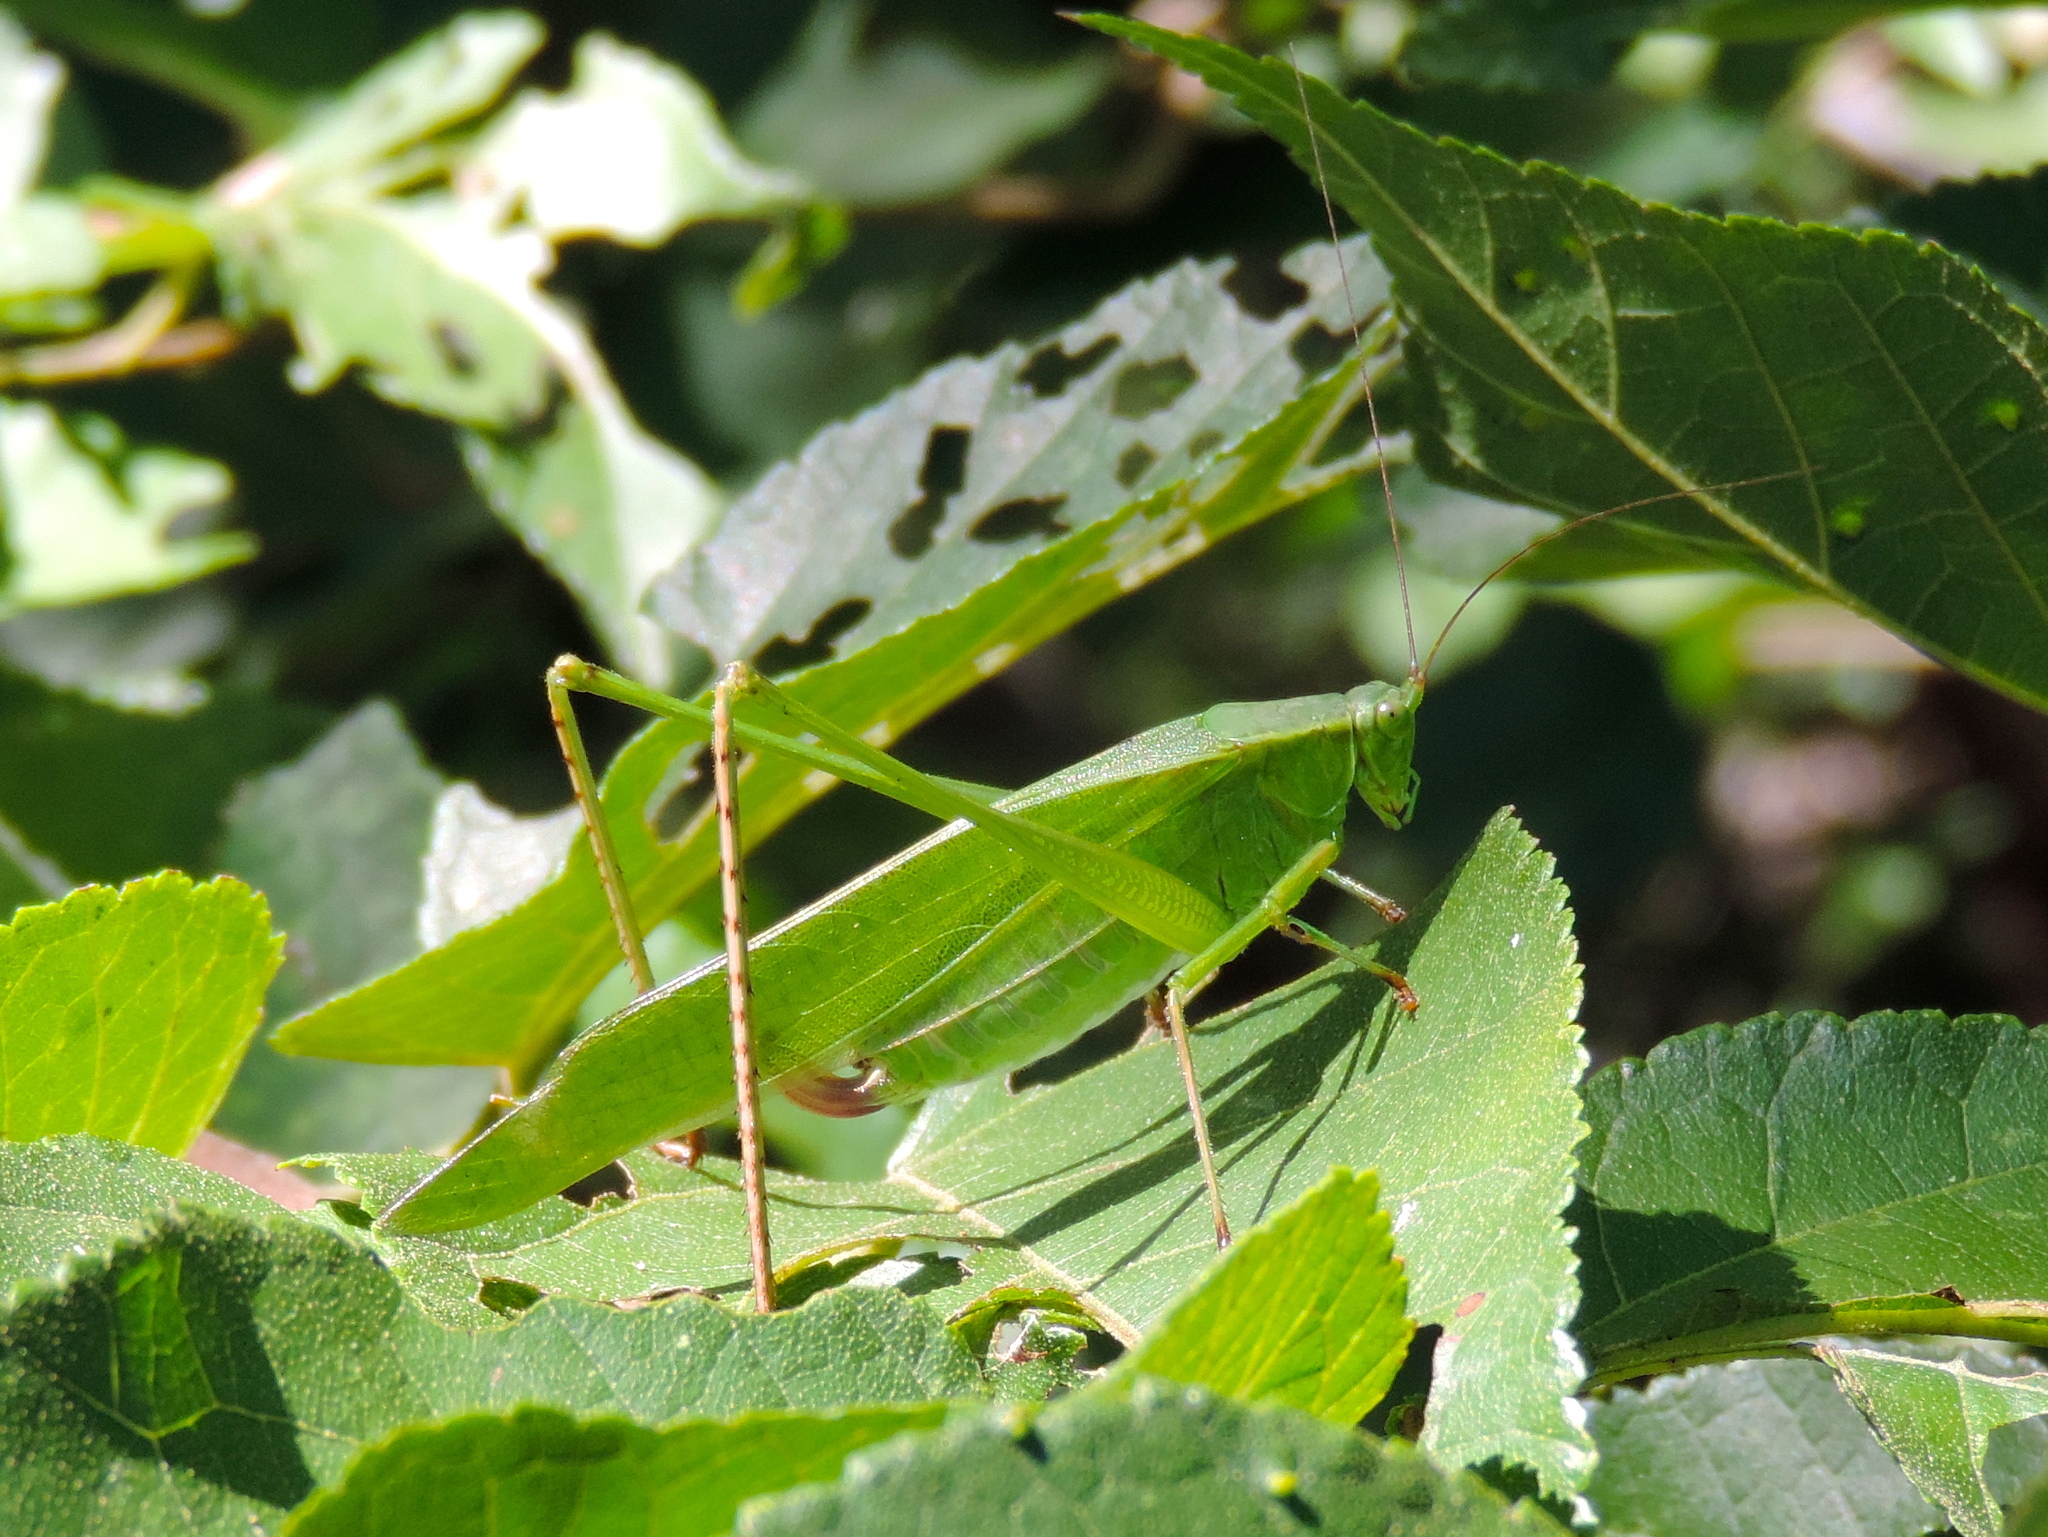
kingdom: Animalia
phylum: Arthropoda
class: Insecta
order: Orthoptera
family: Tettigoniidae
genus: Scudderia
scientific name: Scudderia
